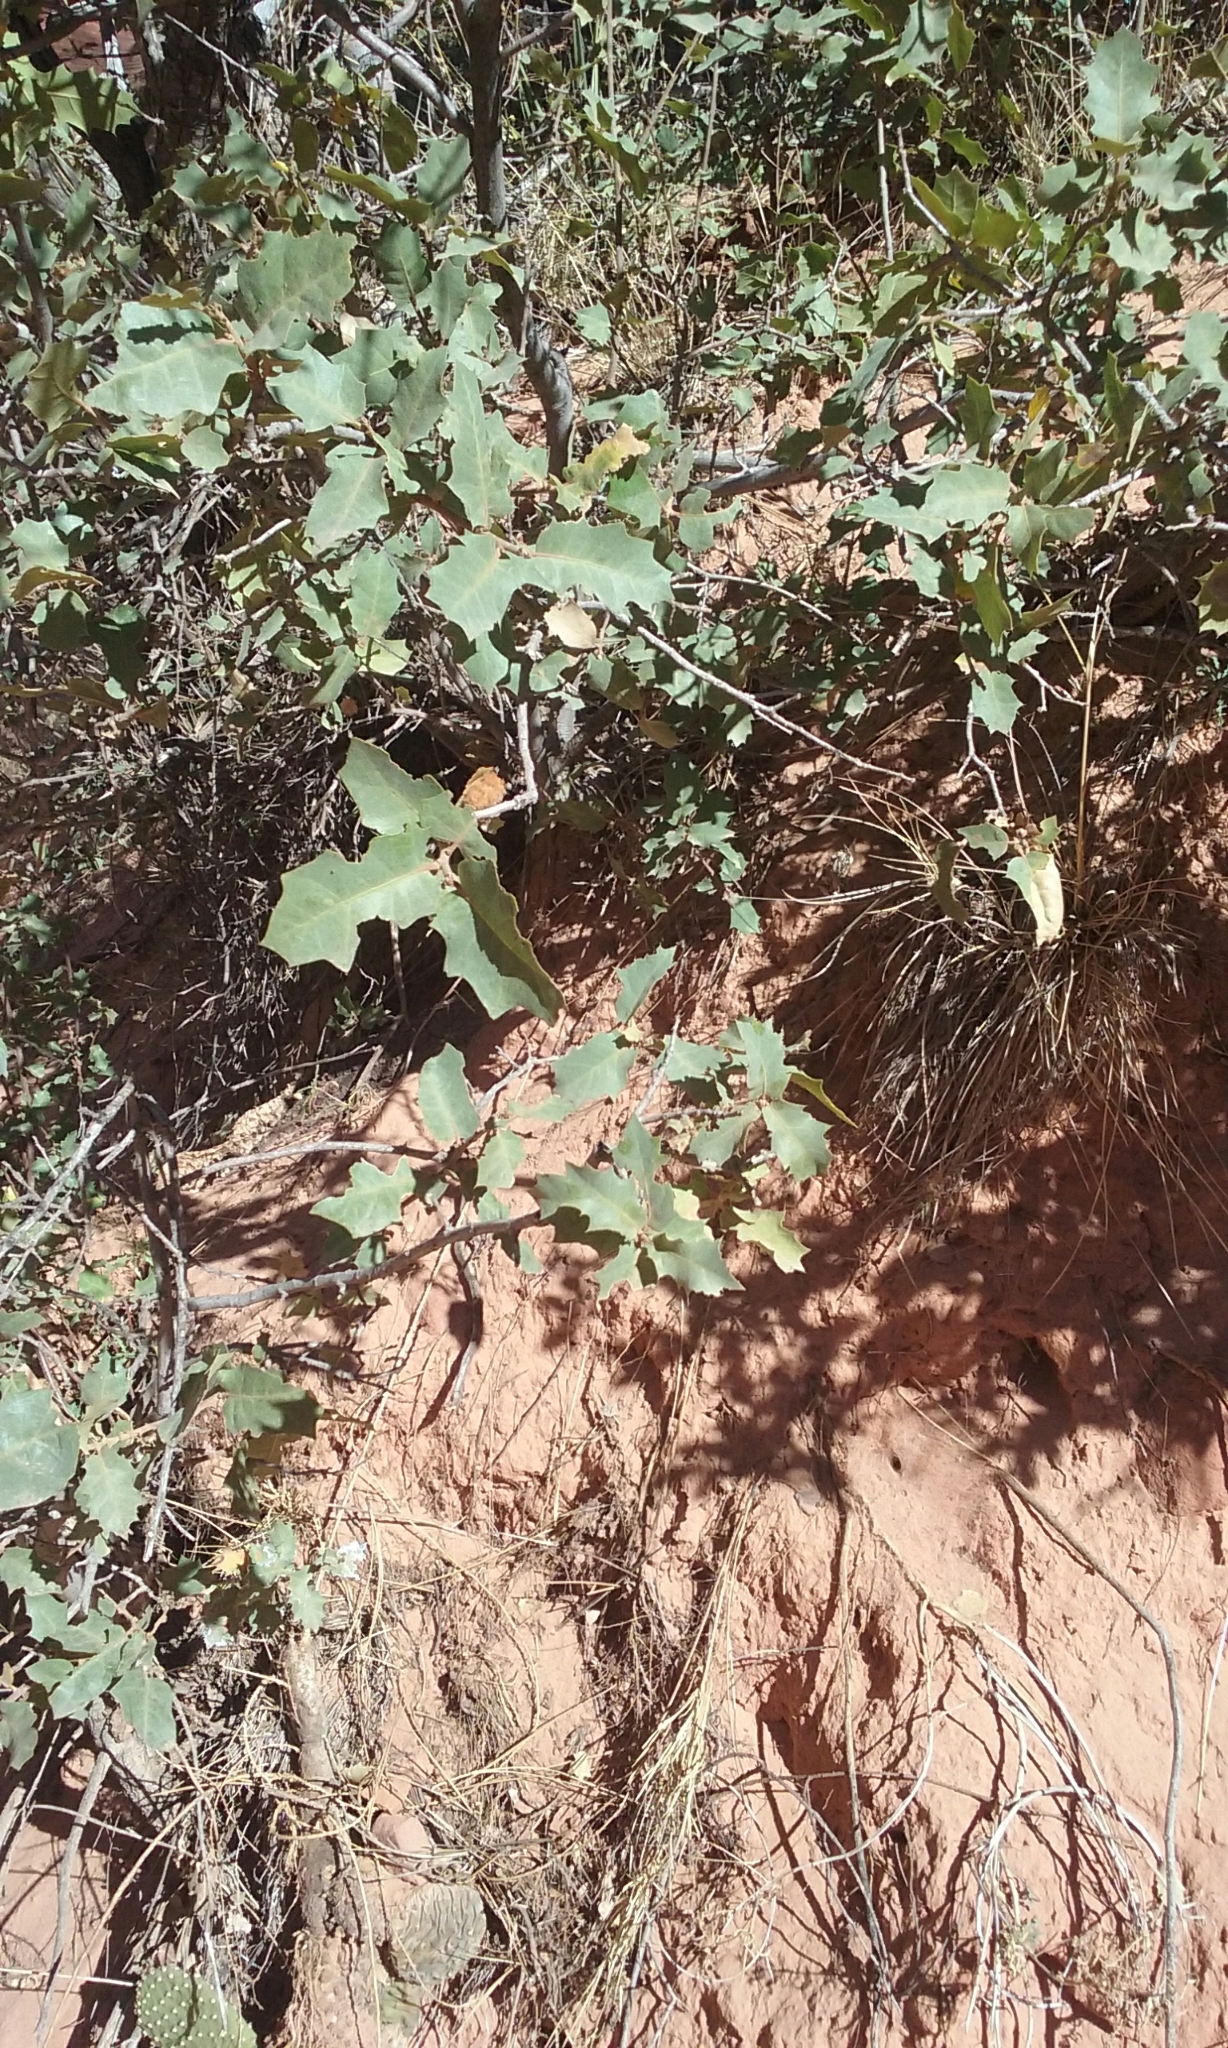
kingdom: Animalia
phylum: Arthropoda
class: Insecta
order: Hymenoptera
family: Cynipidae
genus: Andricus
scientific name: Andricus
